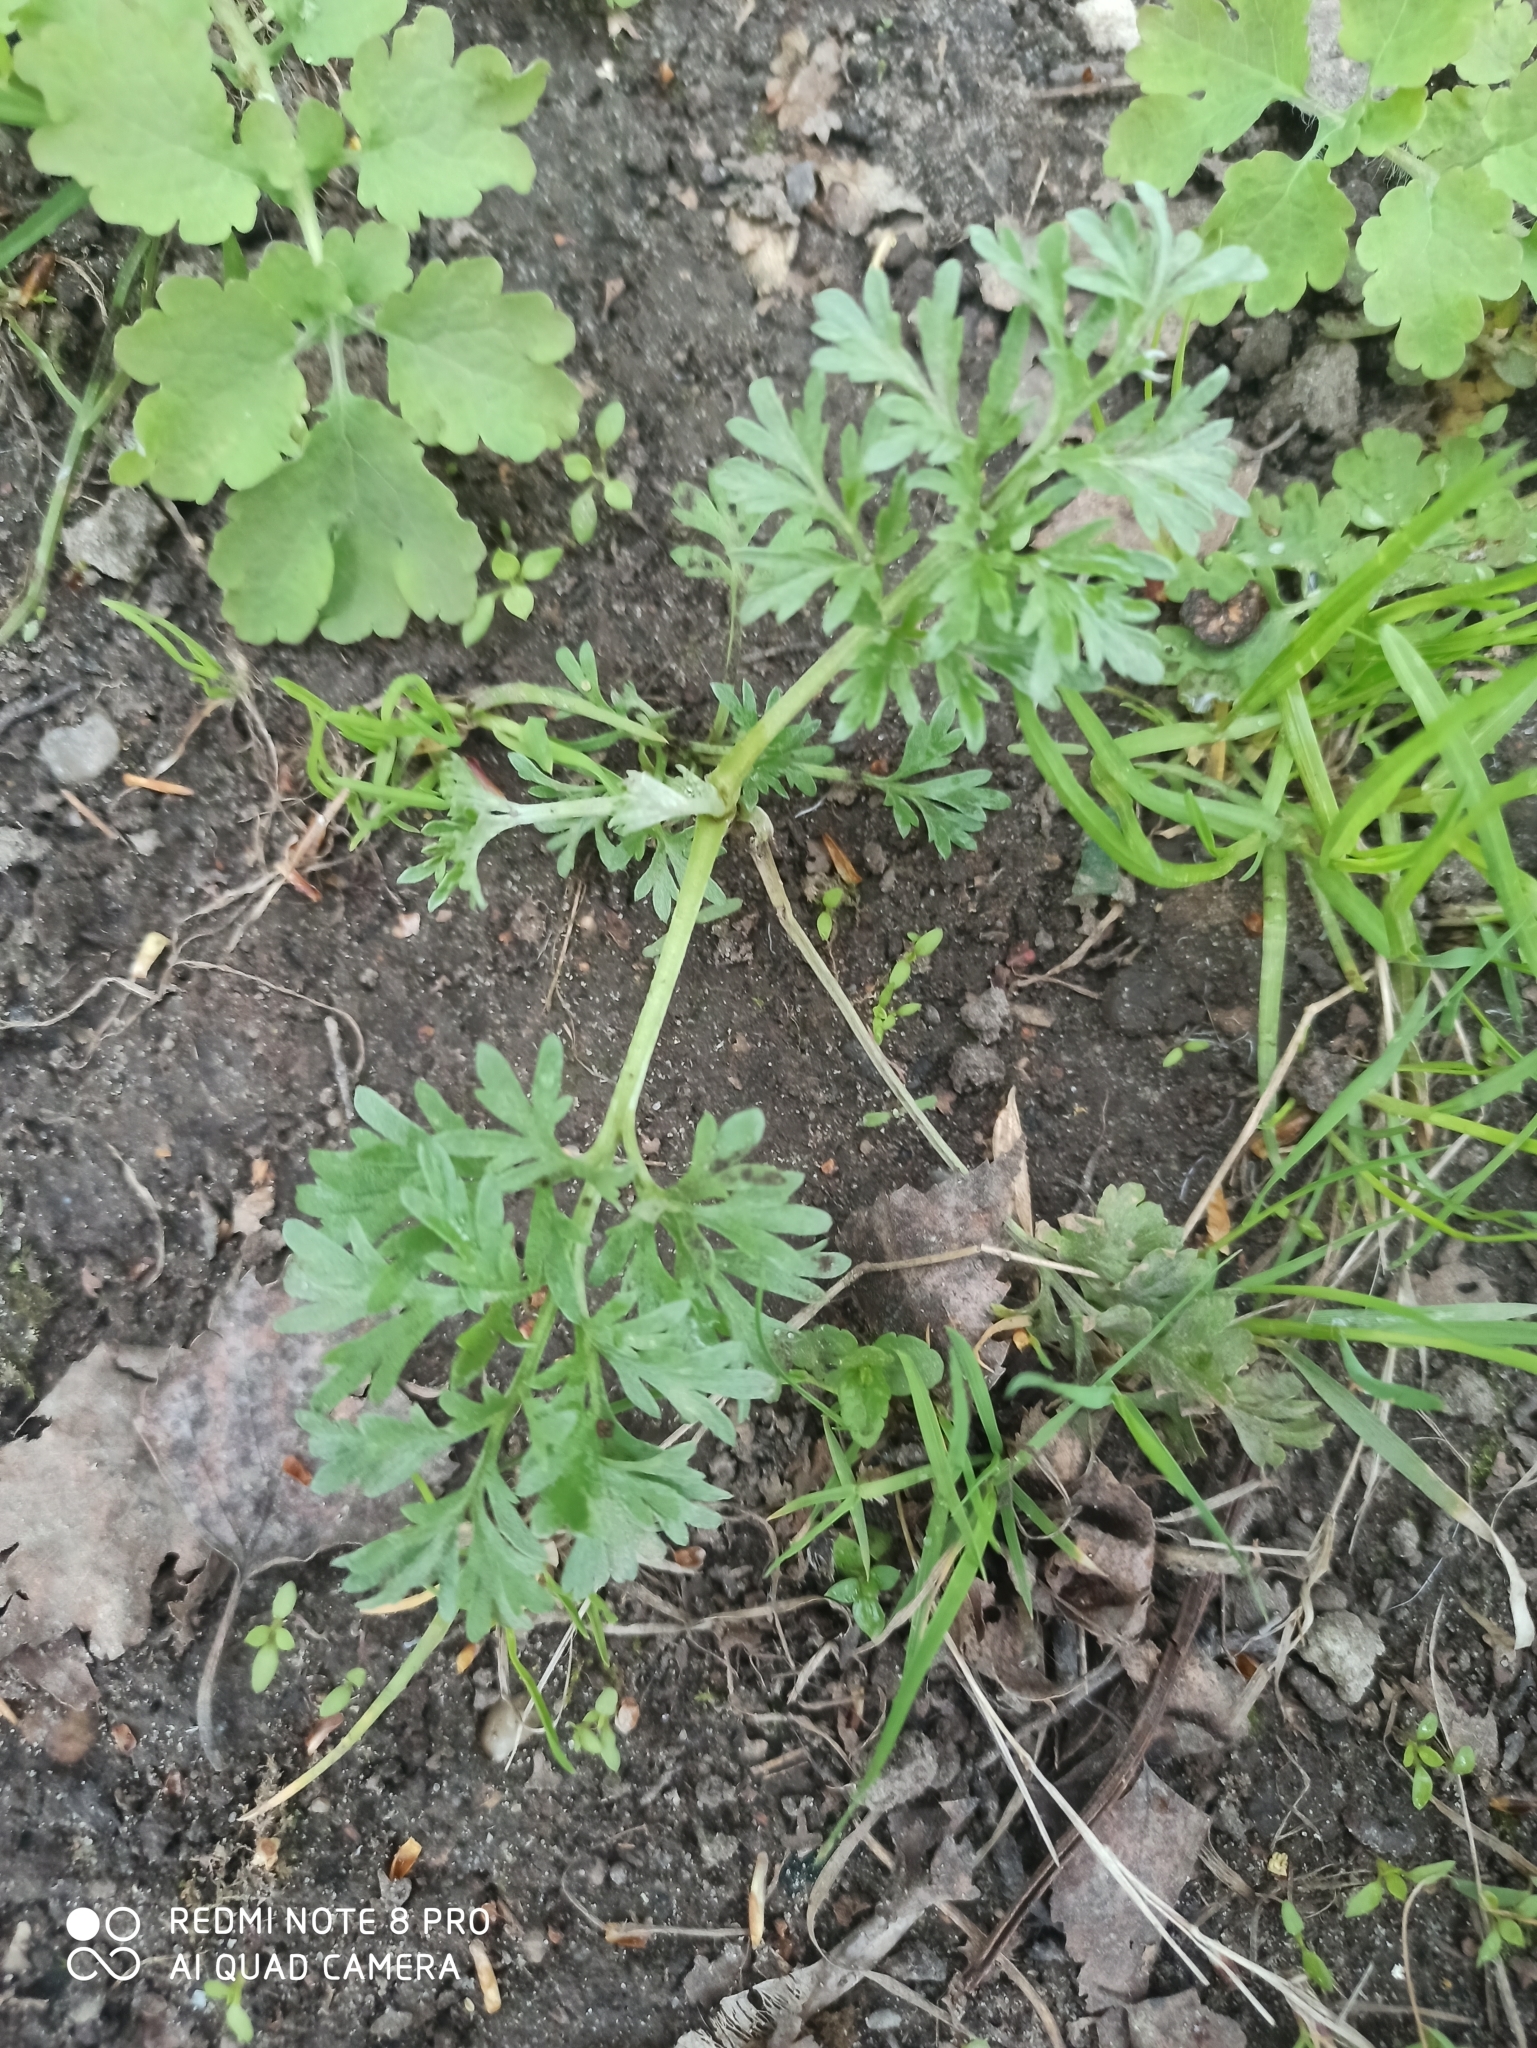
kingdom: Plantae
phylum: Tracheophyta
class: Magnoliopsida
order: Asterales
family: Asteraceae
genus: Artemisia
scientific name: Artemisia absinthium
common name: Wormwood
